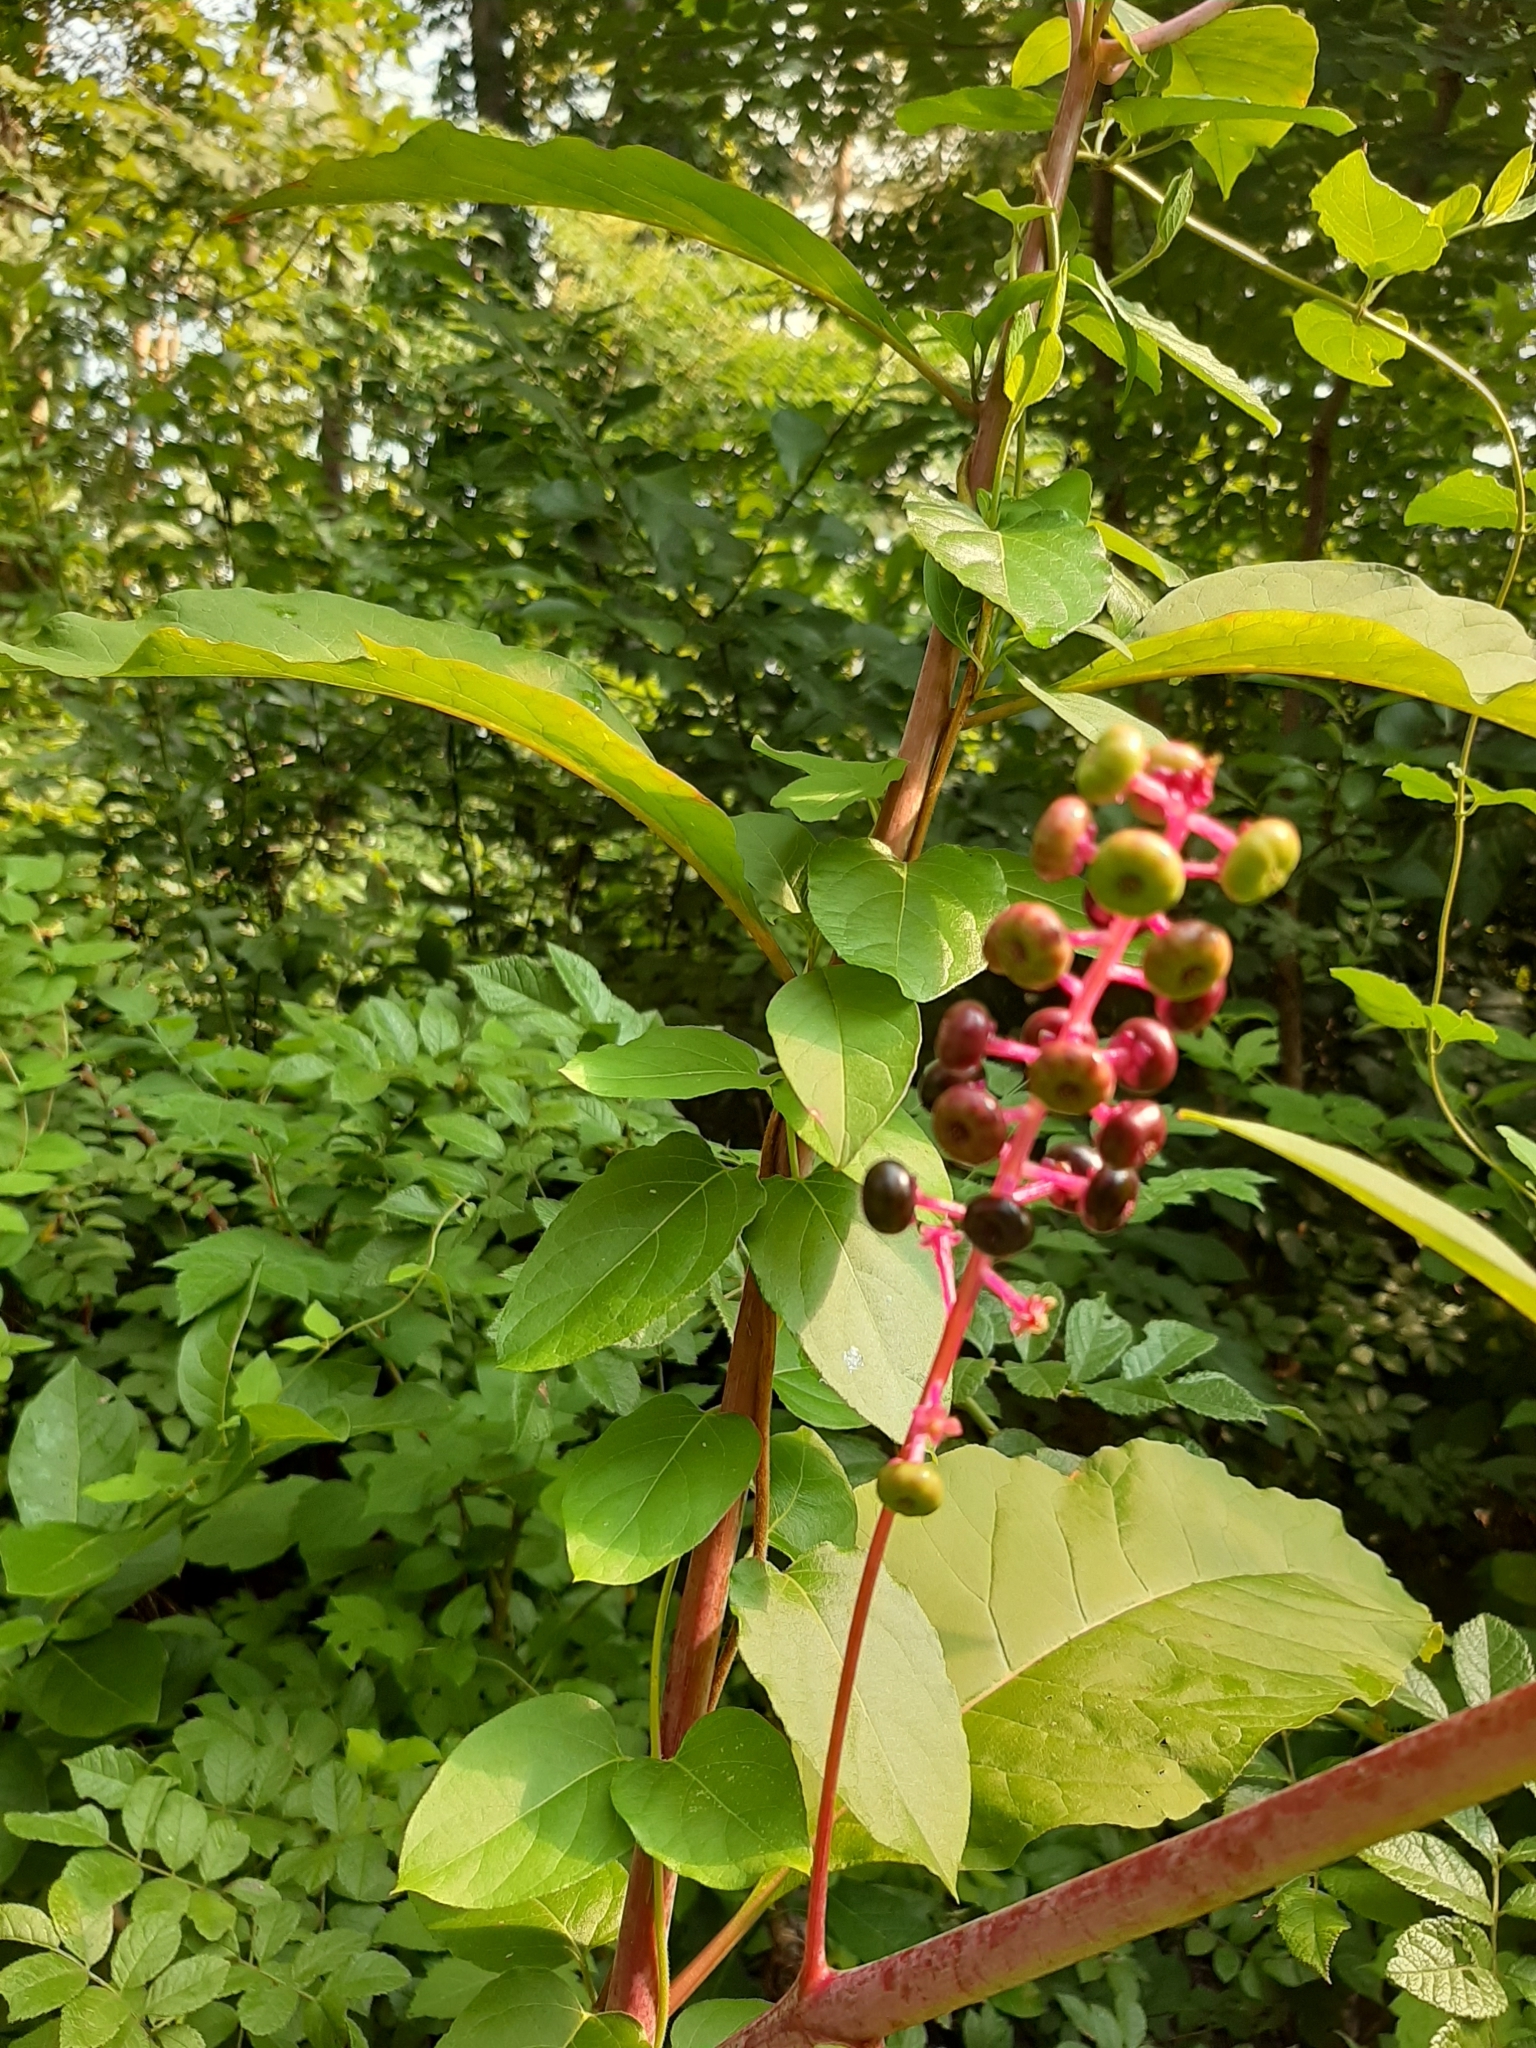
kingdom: Plantae
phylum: Tracheophyta
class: Magnoliopsida
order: Caryophyllales
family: Phytolaccaceae
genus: Phytolacca
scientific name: Phytolacca americana
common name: American pokeweed
